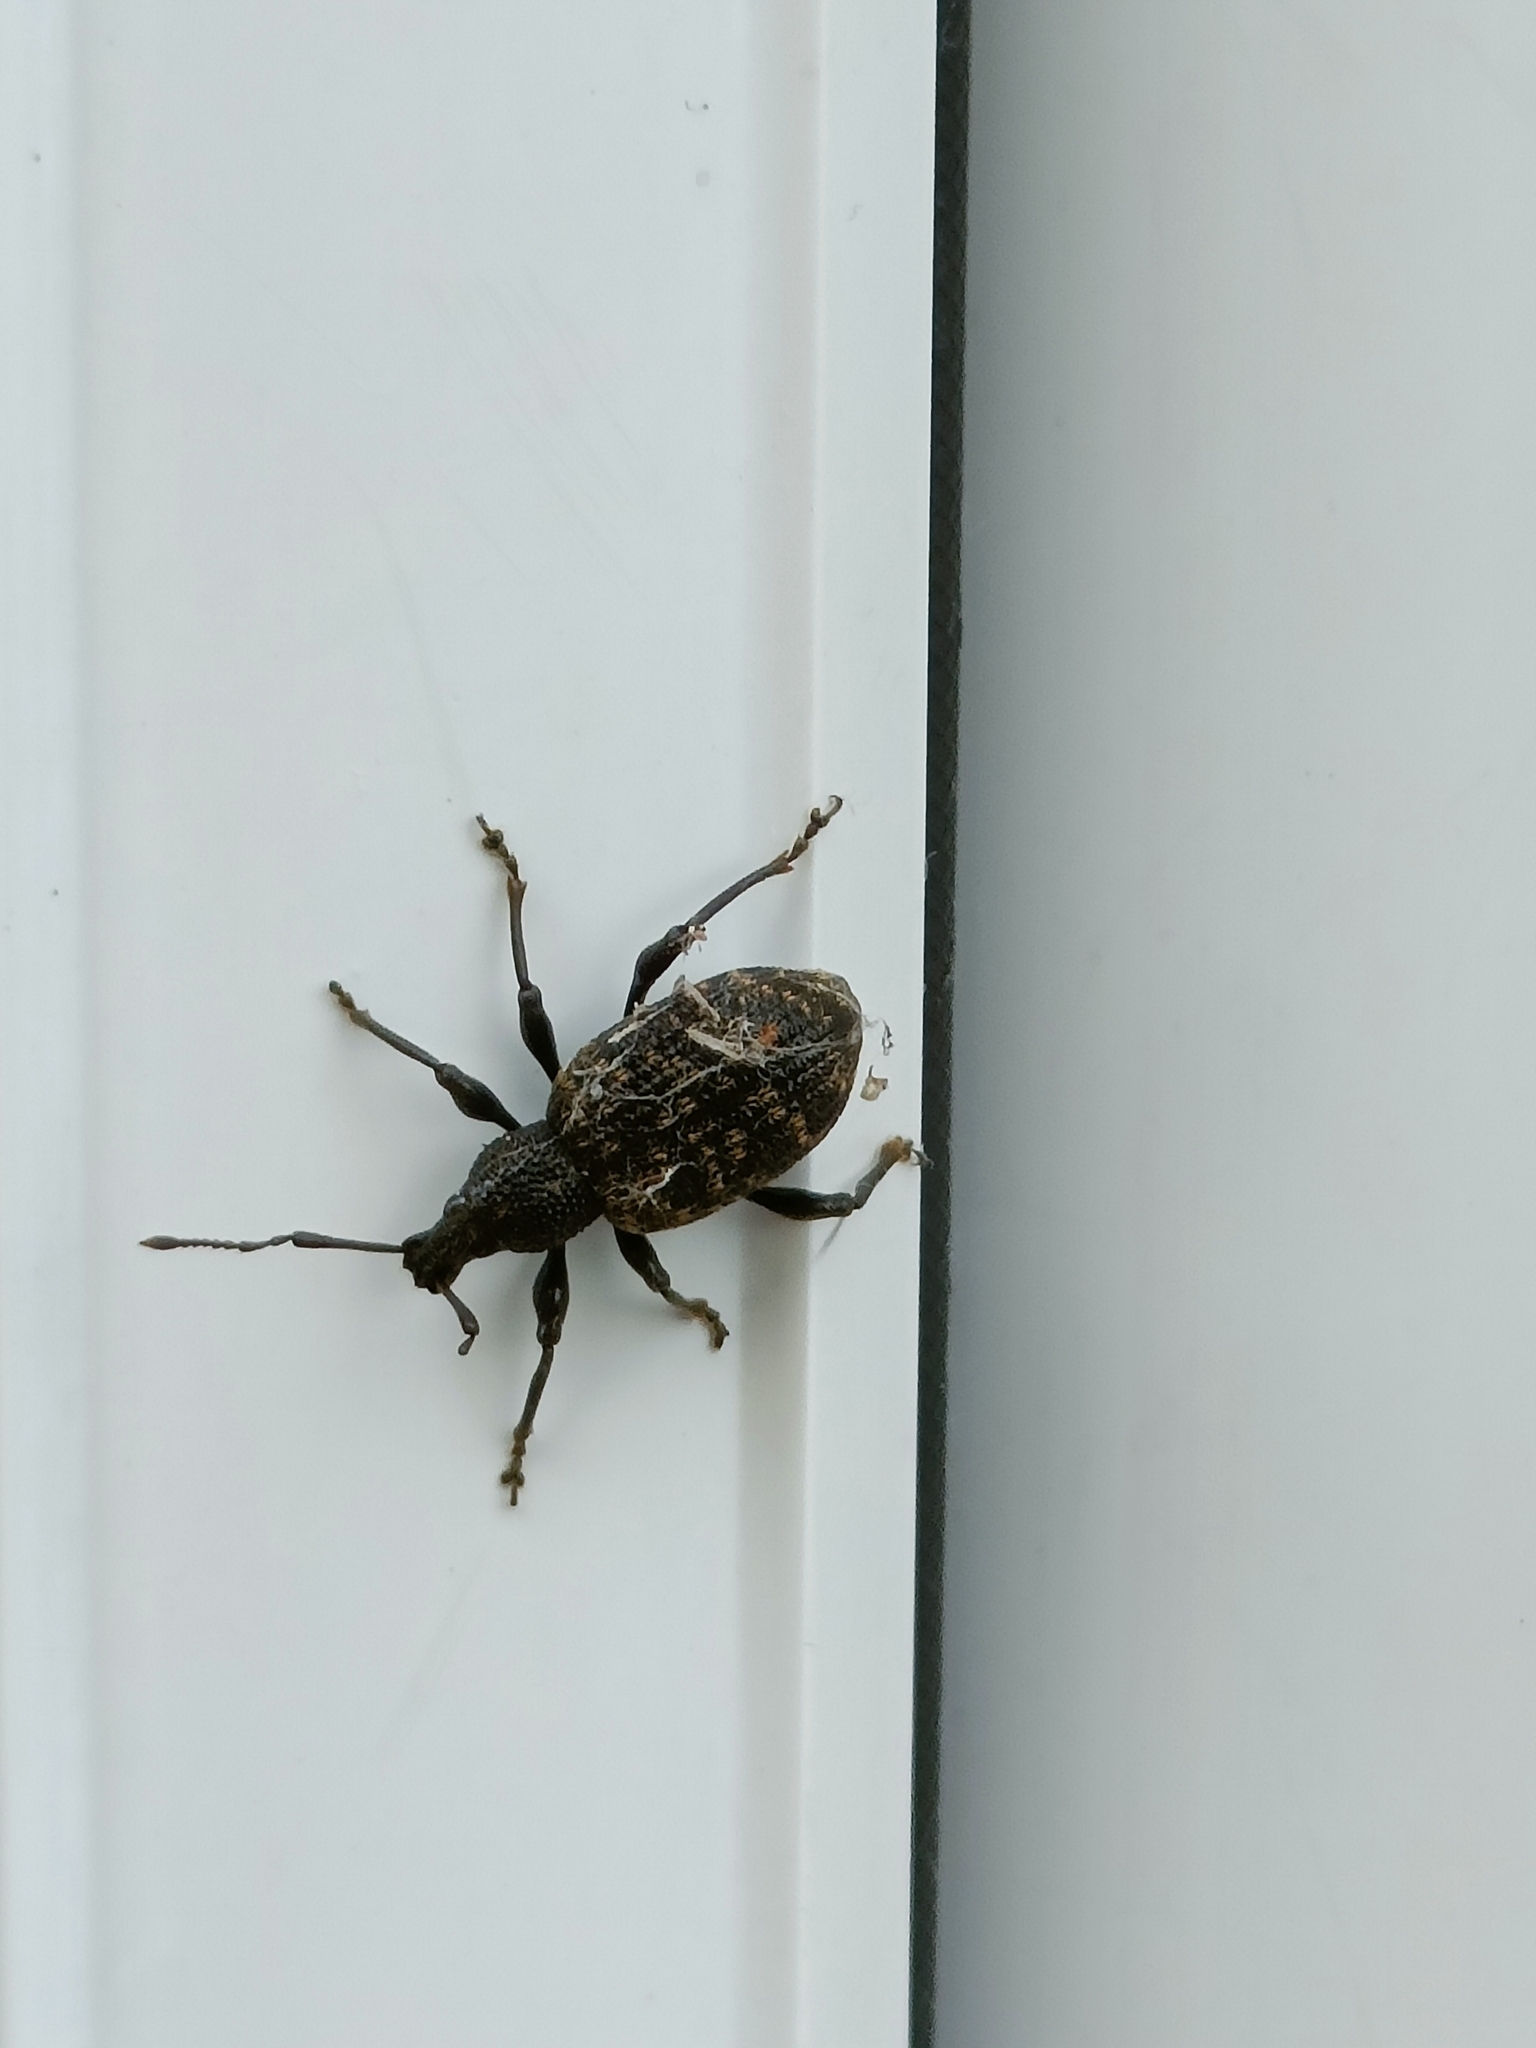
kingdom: Animalia
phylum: Arthropoda
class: Insecta
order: Coleoptera
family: Curculionidae
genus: Otiorhynchus
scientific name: Otiorhynchus sulcatus
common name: Black vine weevil
